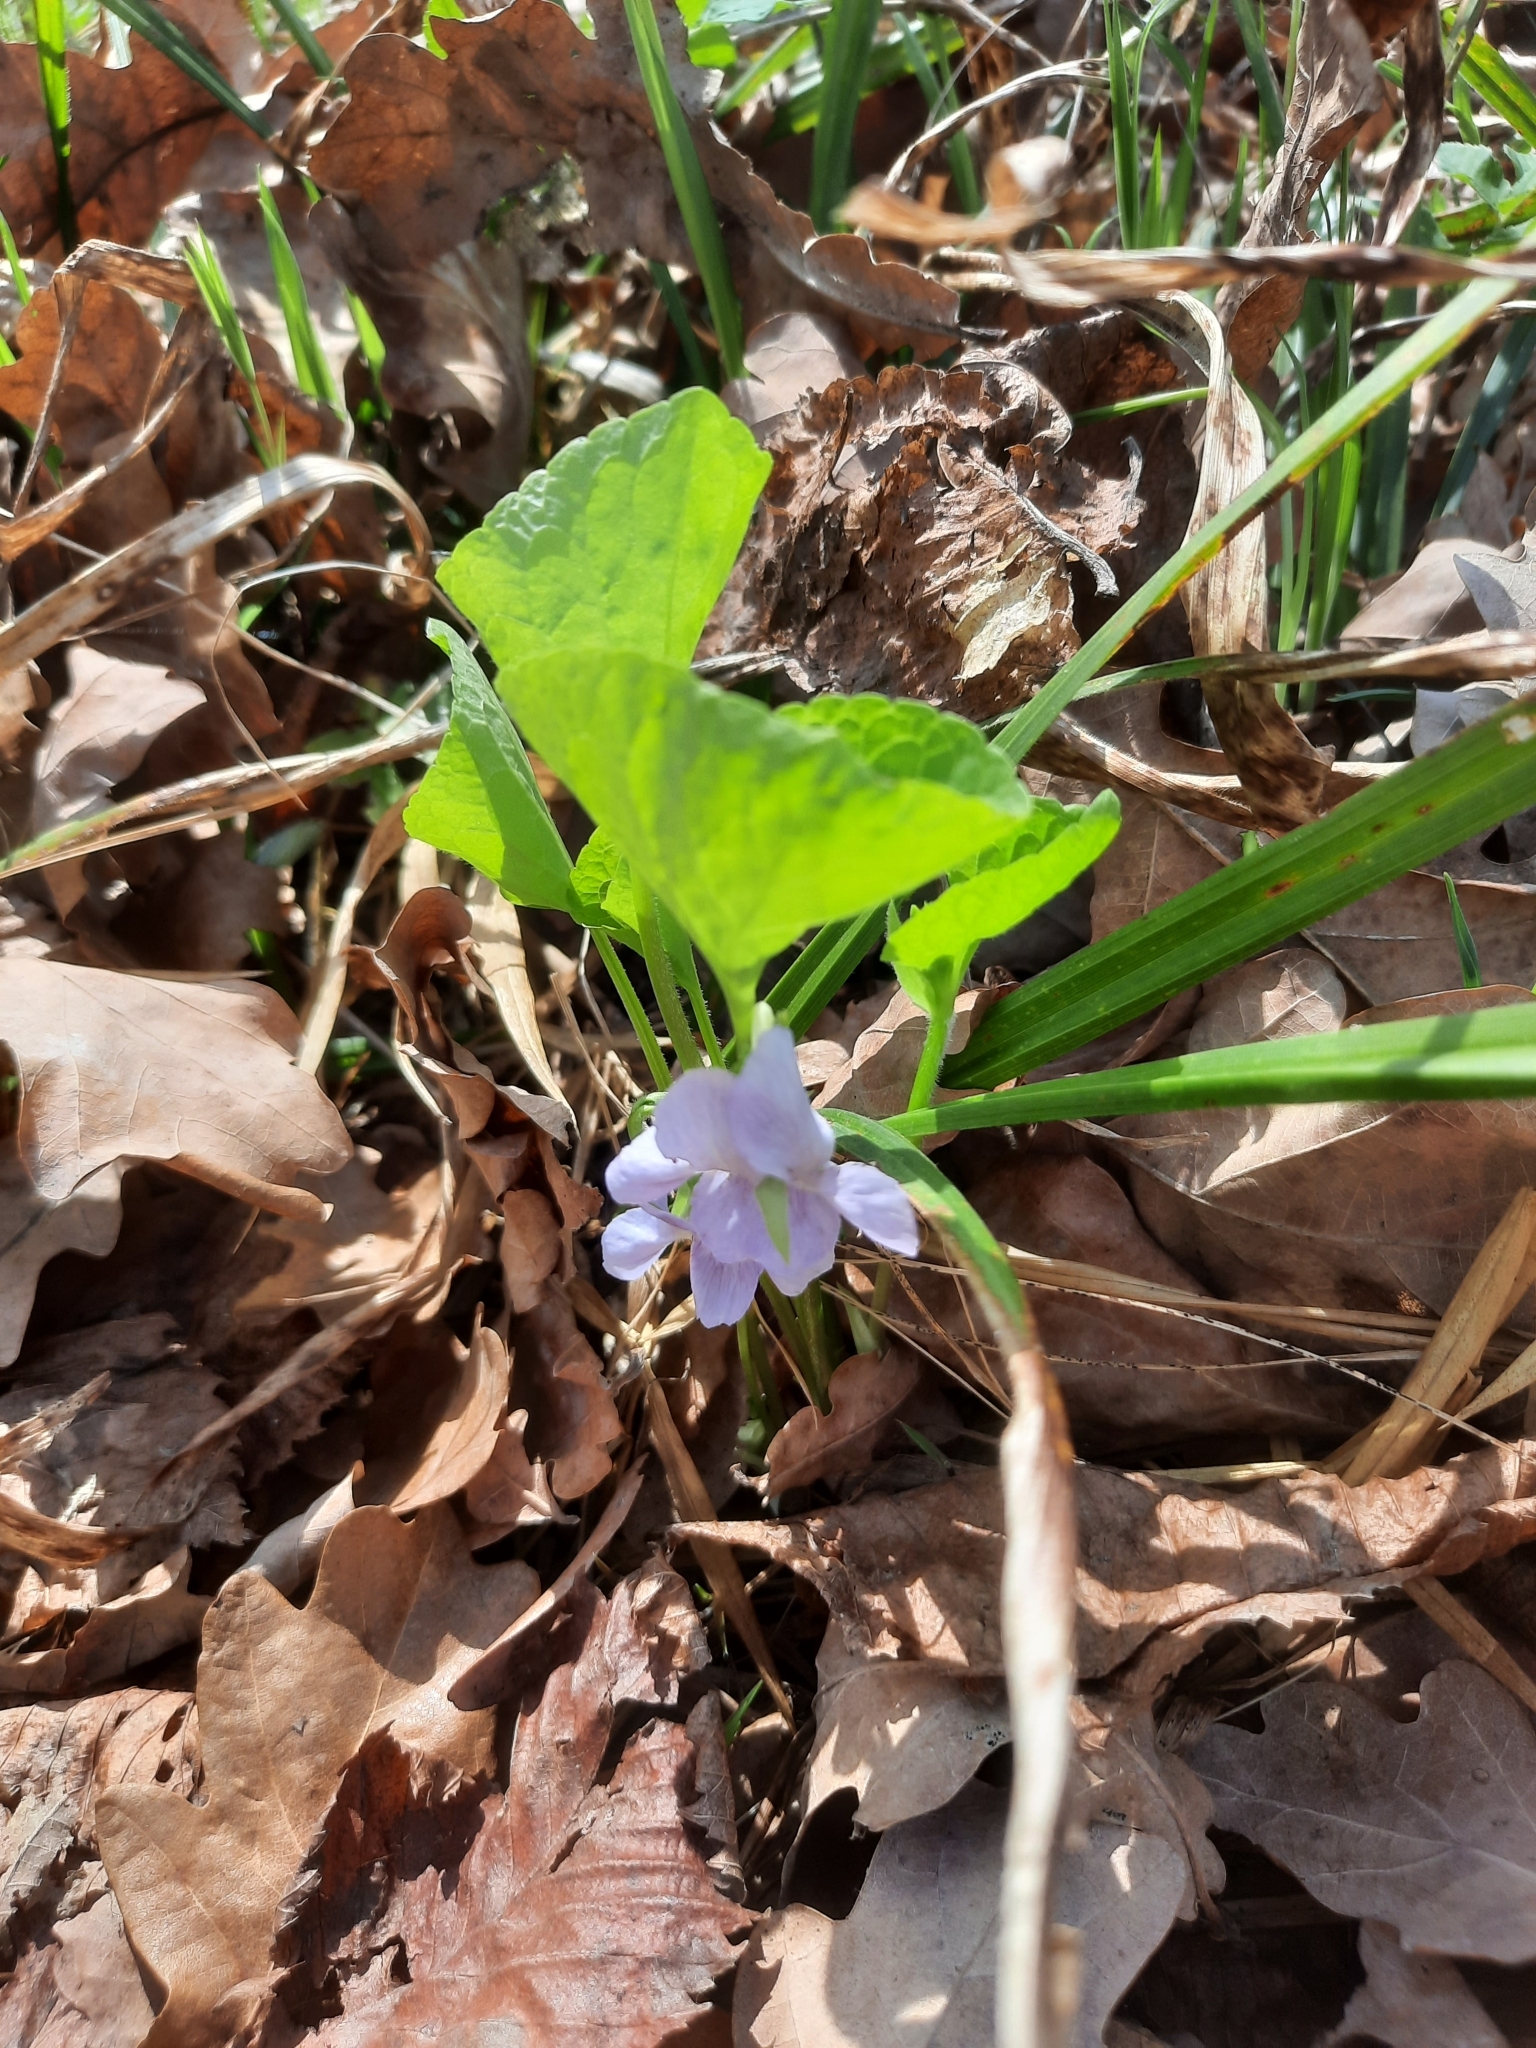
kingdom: Plantae
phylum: Tracheophyta
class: Magnoliopsida
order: Malpighiales
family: Violaceae
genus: Viola
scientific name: Viola mirabilis
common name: Wonder violet
